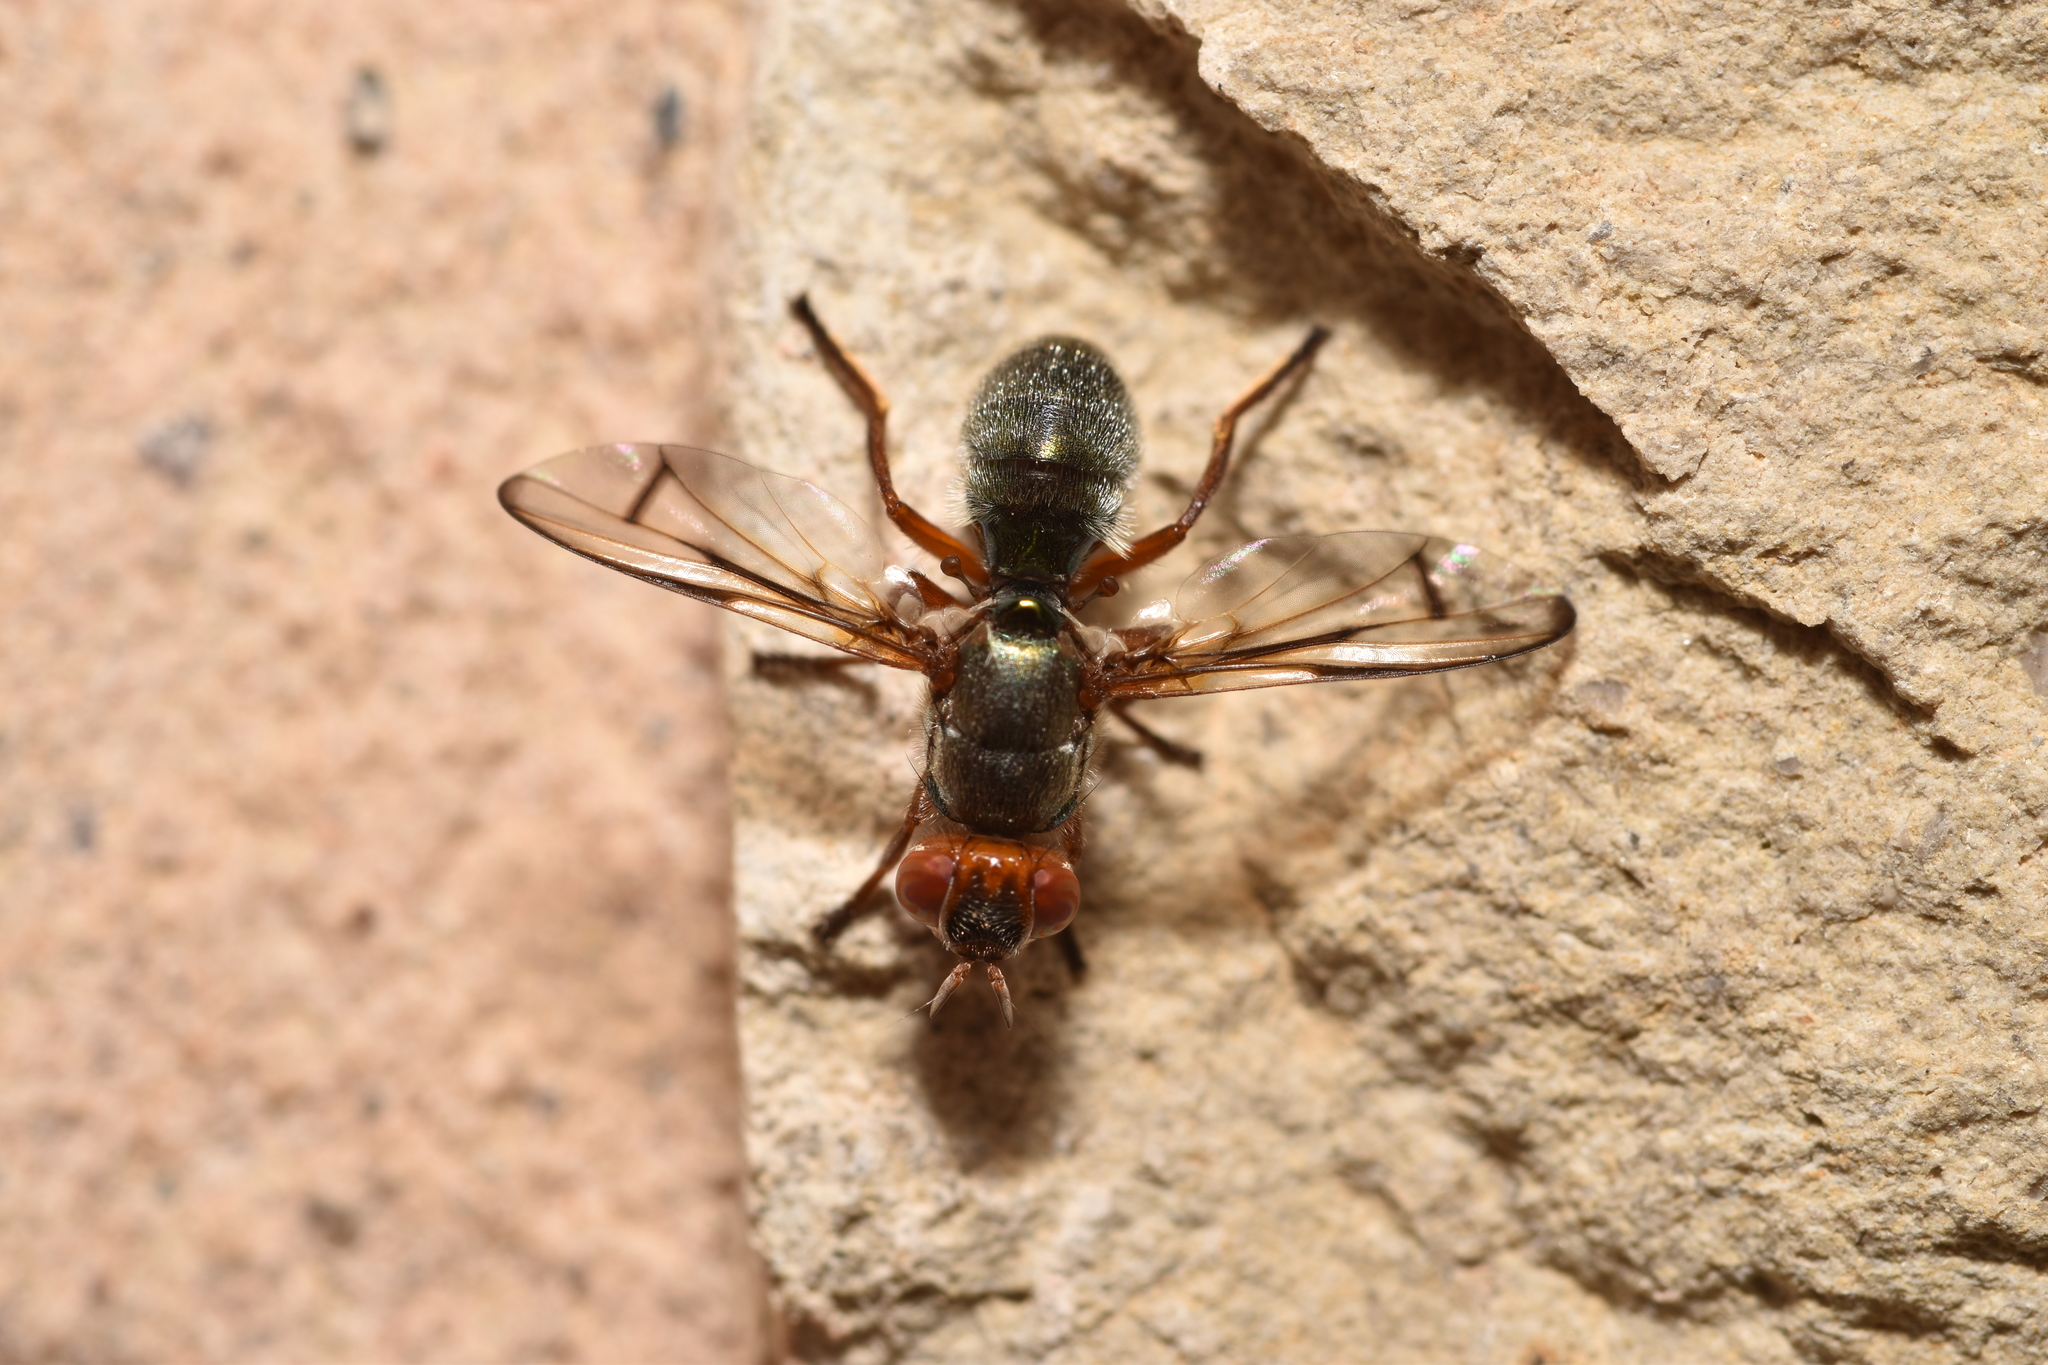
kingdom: Animalia
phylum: Arthropoda
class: Insecta
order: Diptera
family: Platystomatidae
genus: Senopterina
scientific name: Senopterina caerulescens
